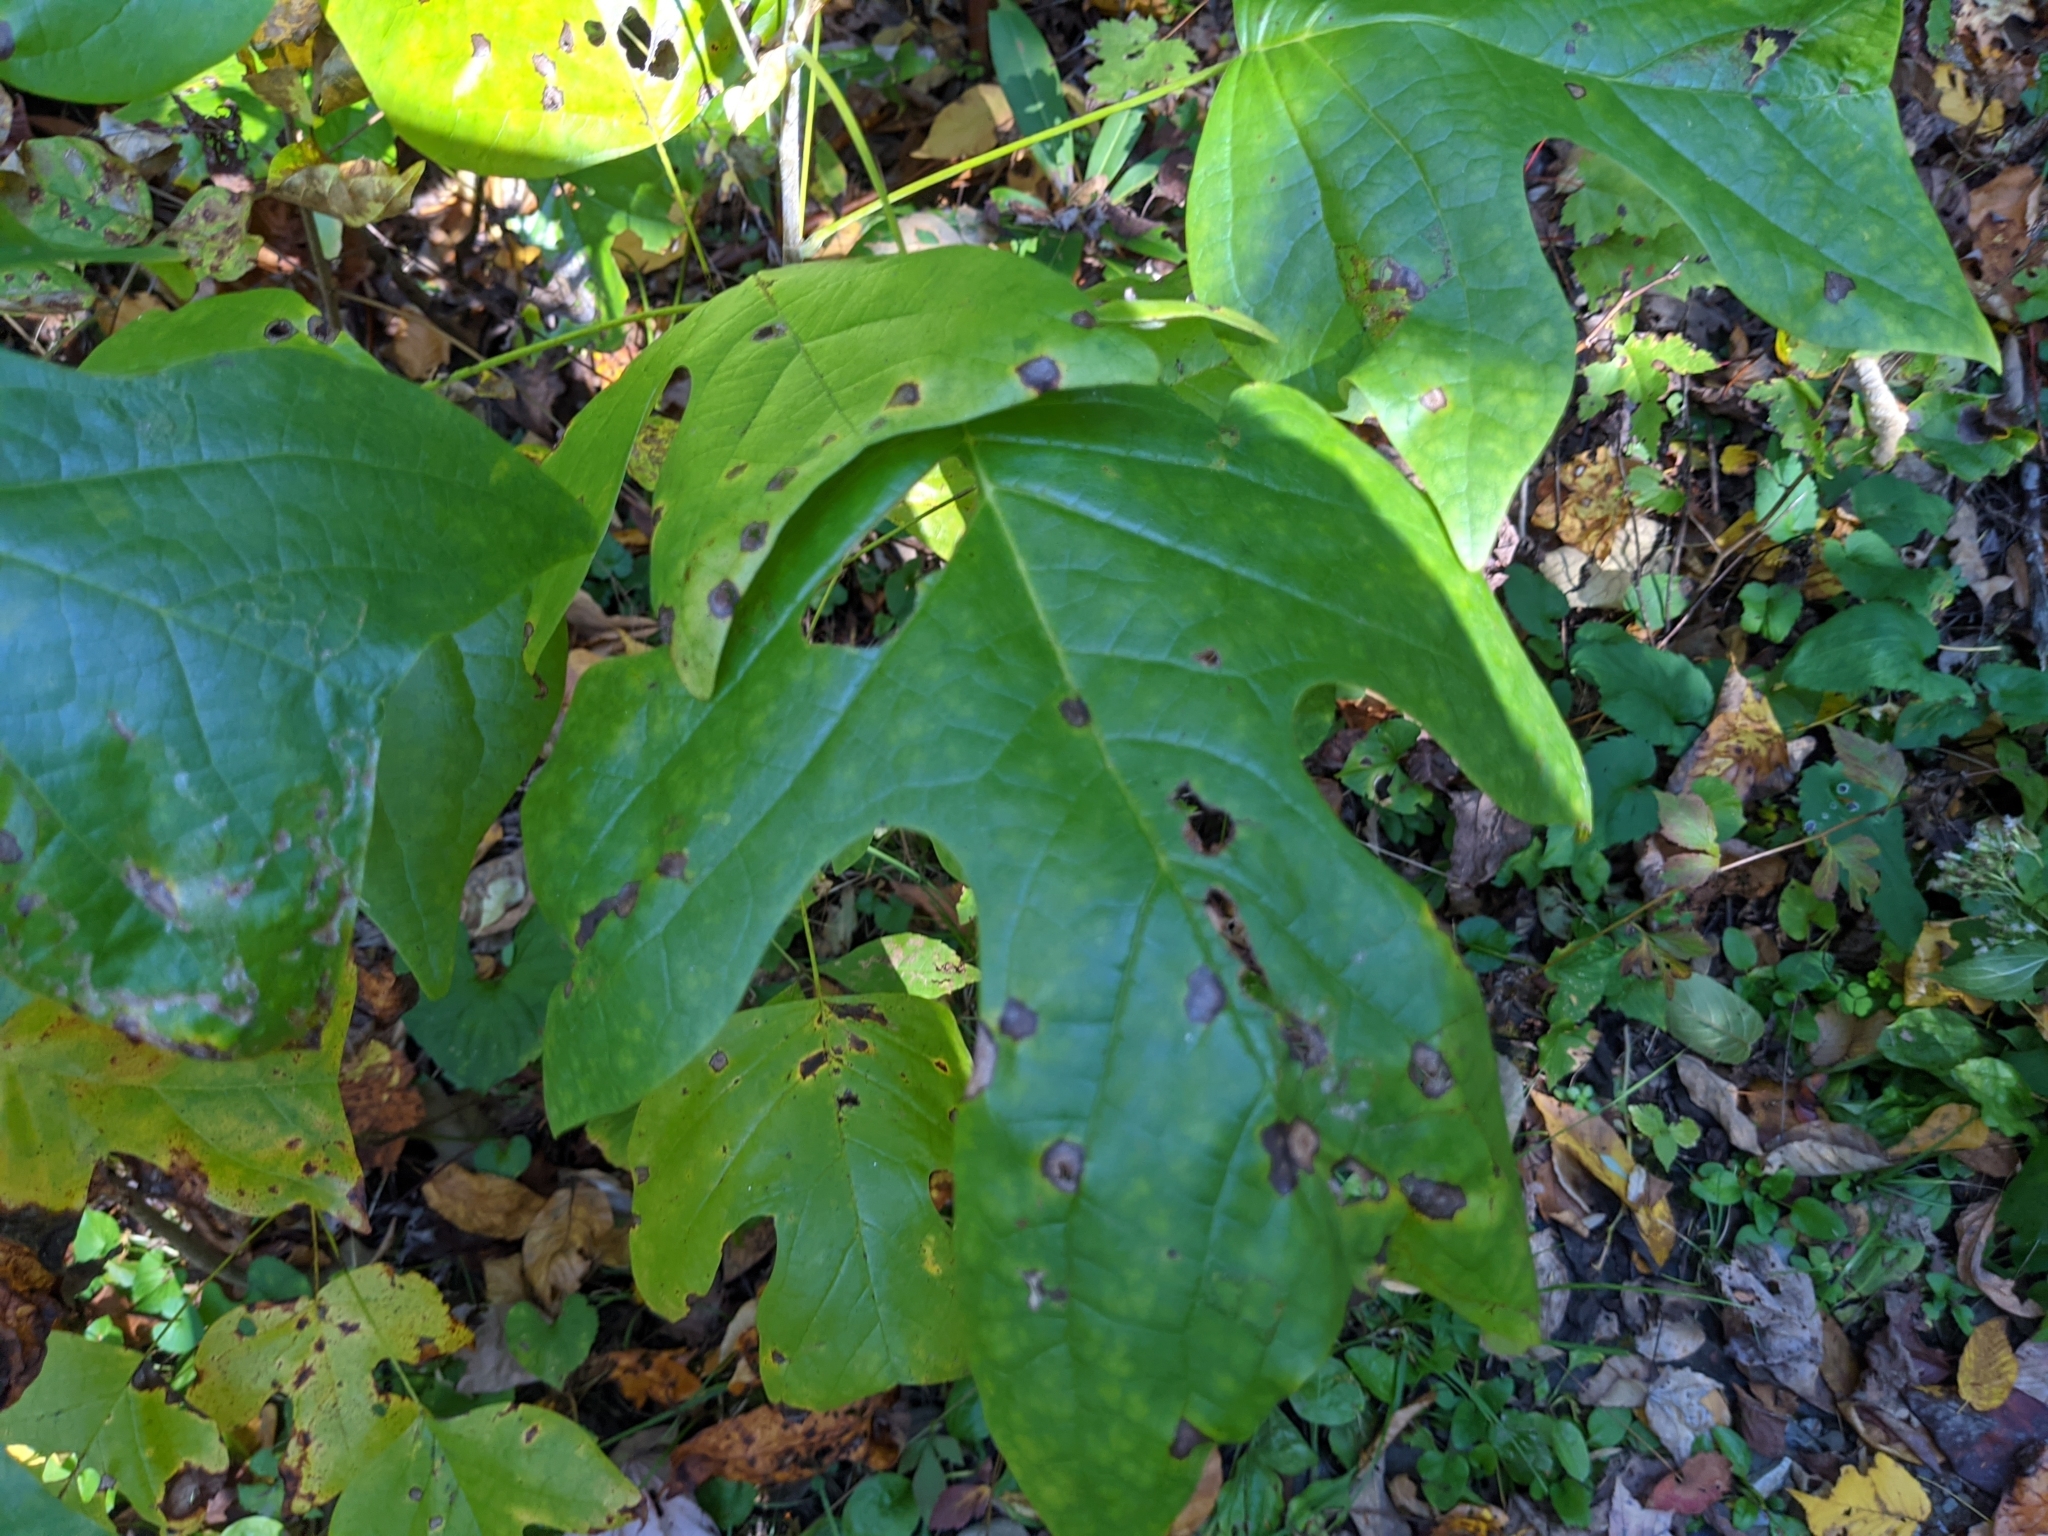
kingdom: Plantae
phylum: Tracheophyta
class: Magnoliopsida
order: Magnoliales
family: Magnoliaceae
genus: Liriodendron
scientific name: Liriodendron tulipifera
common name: Tulip tree
